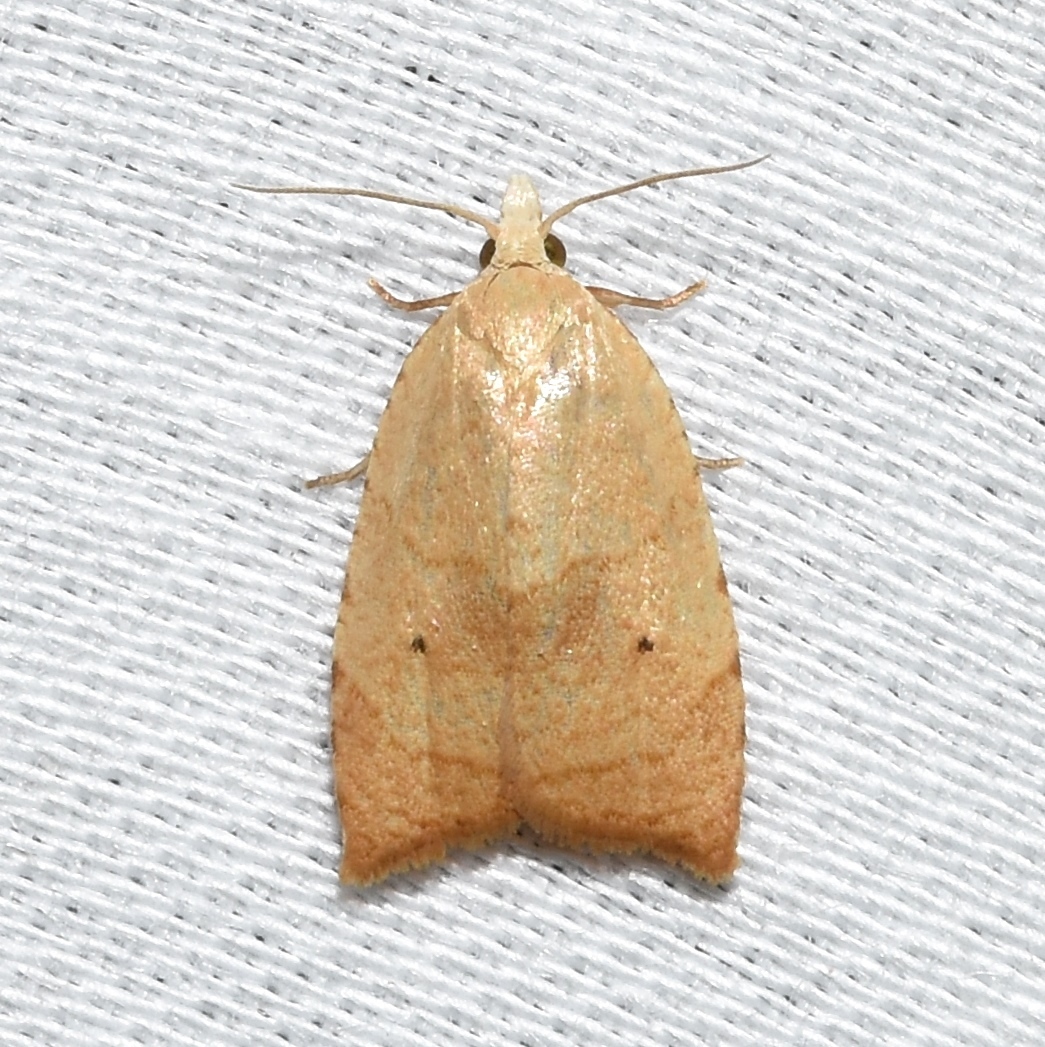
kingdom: Animalia
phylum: Arthropoda
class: Insecta
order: Lepidoptera
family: Tortricidae
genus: Coelostathma
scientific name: Coelostathma discopunctana
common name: Batman moth
